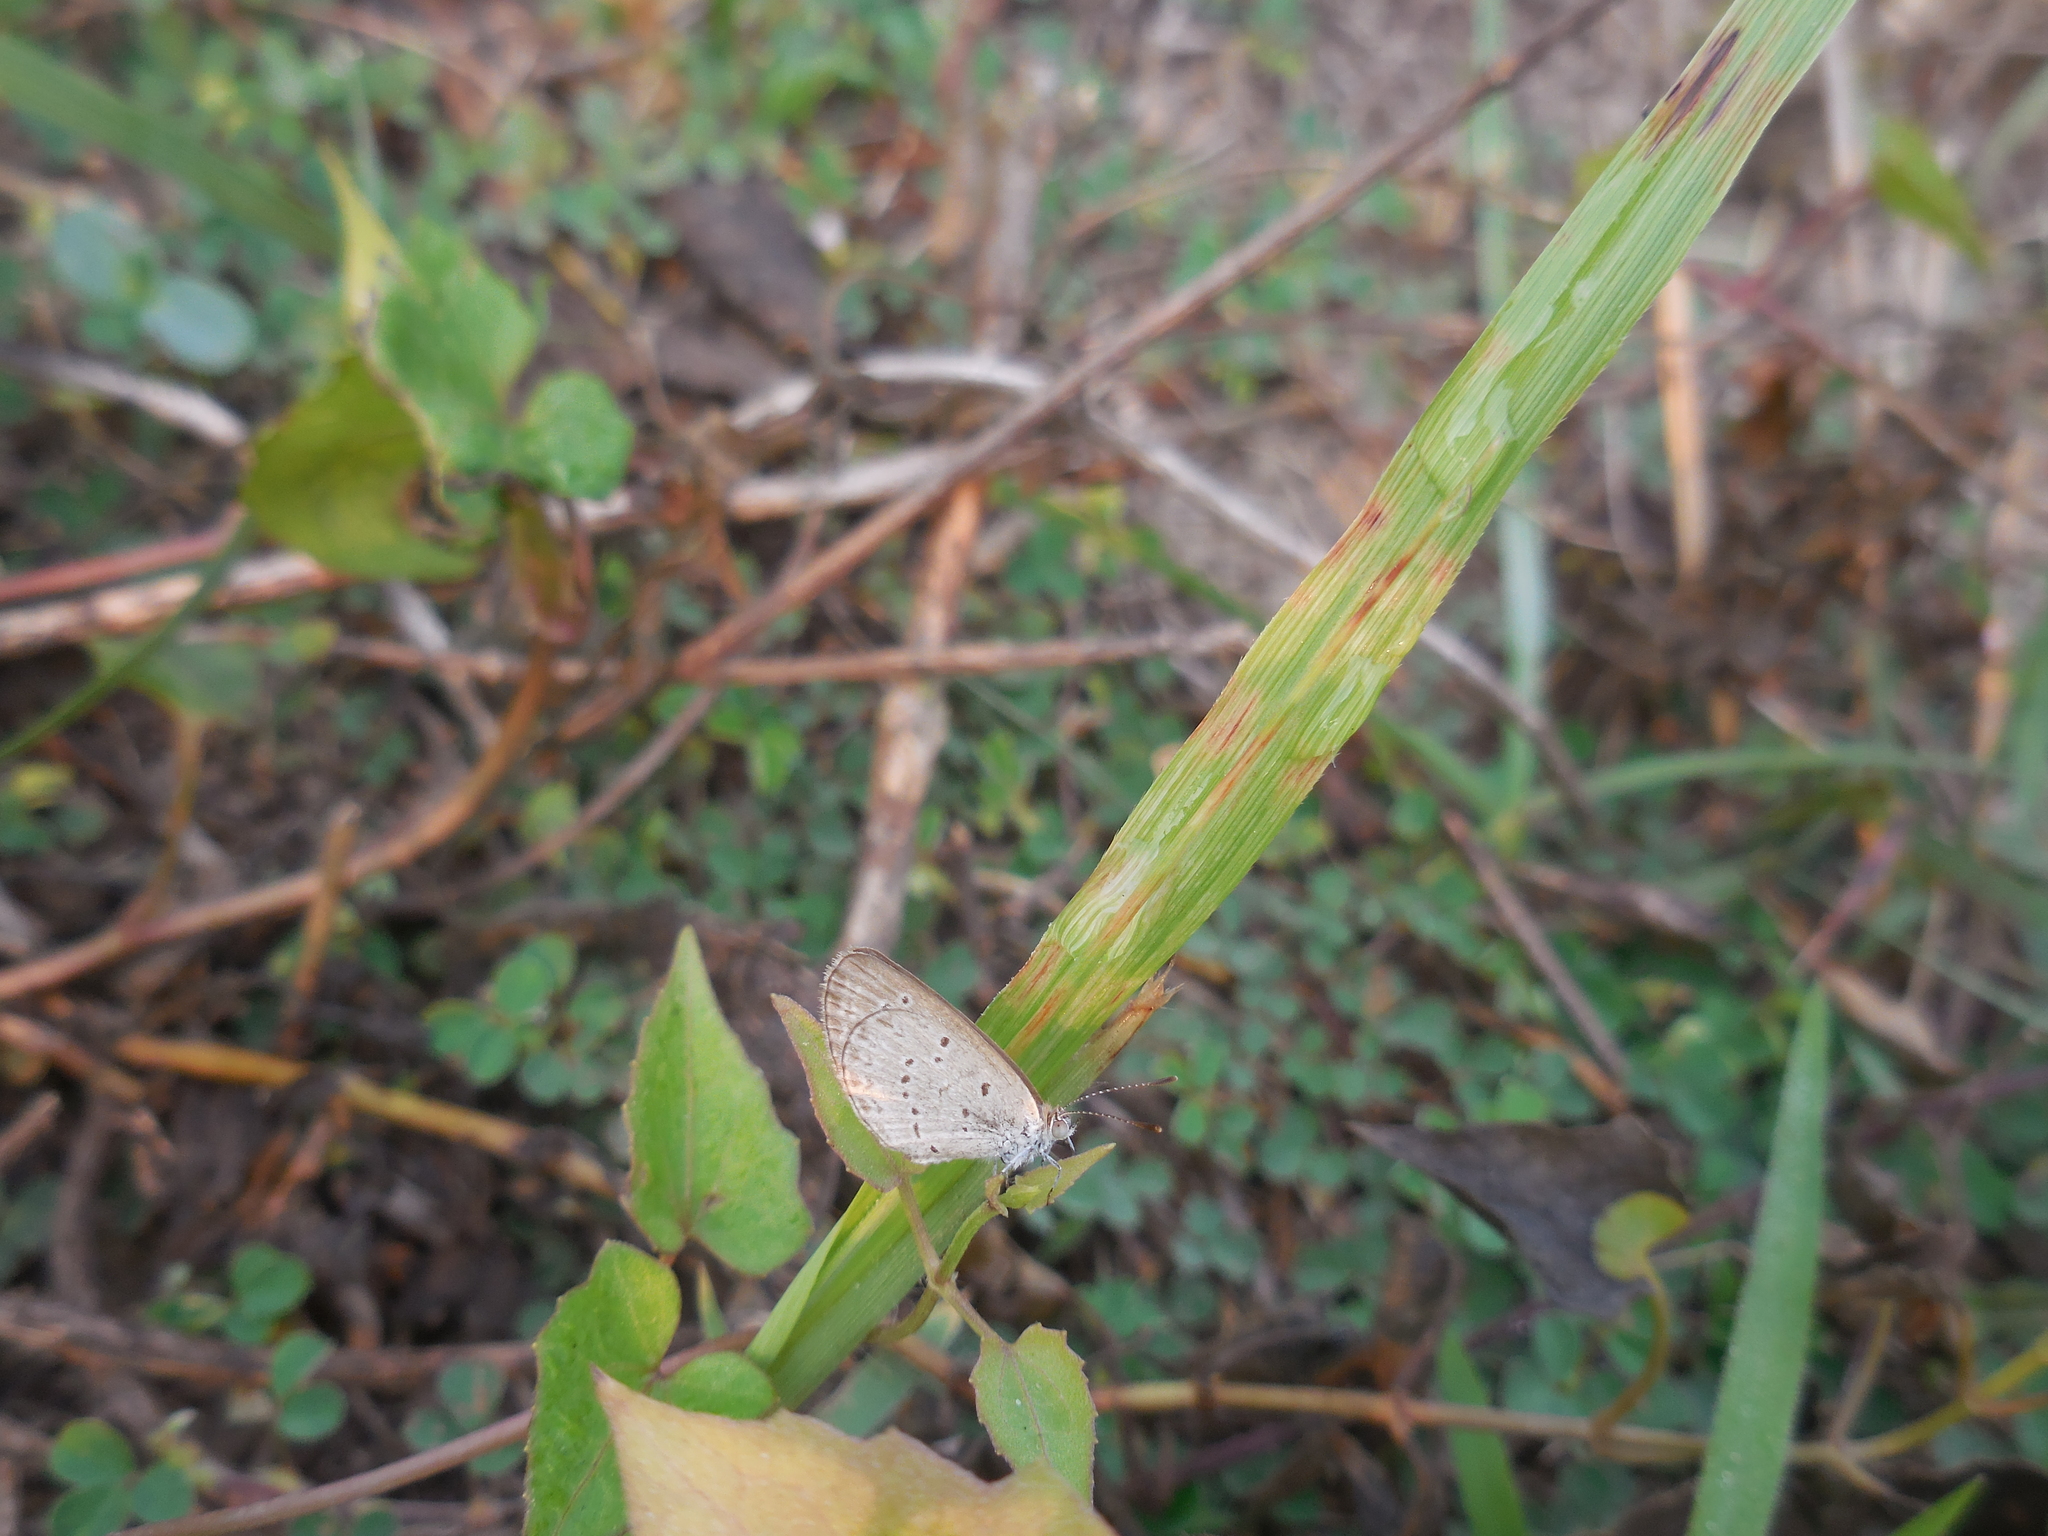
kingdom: Animalia
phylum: Arthropoda
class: Insecta
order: Lepidoptera
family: Lycaenidae
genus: Pseudozizeeria
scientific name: Pseudozizeeria maha
